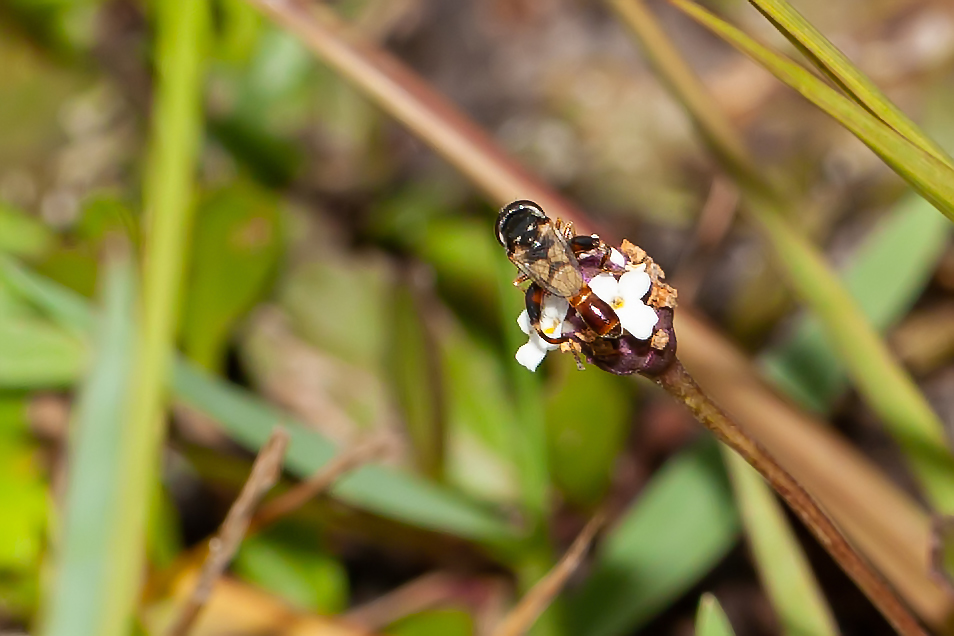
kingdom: Animalia
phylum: Arthropoda
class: Insecta
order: Diptera
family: Syrphidae
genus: Syritta
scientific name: Syritta flaviventris
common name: Syrphid fly
